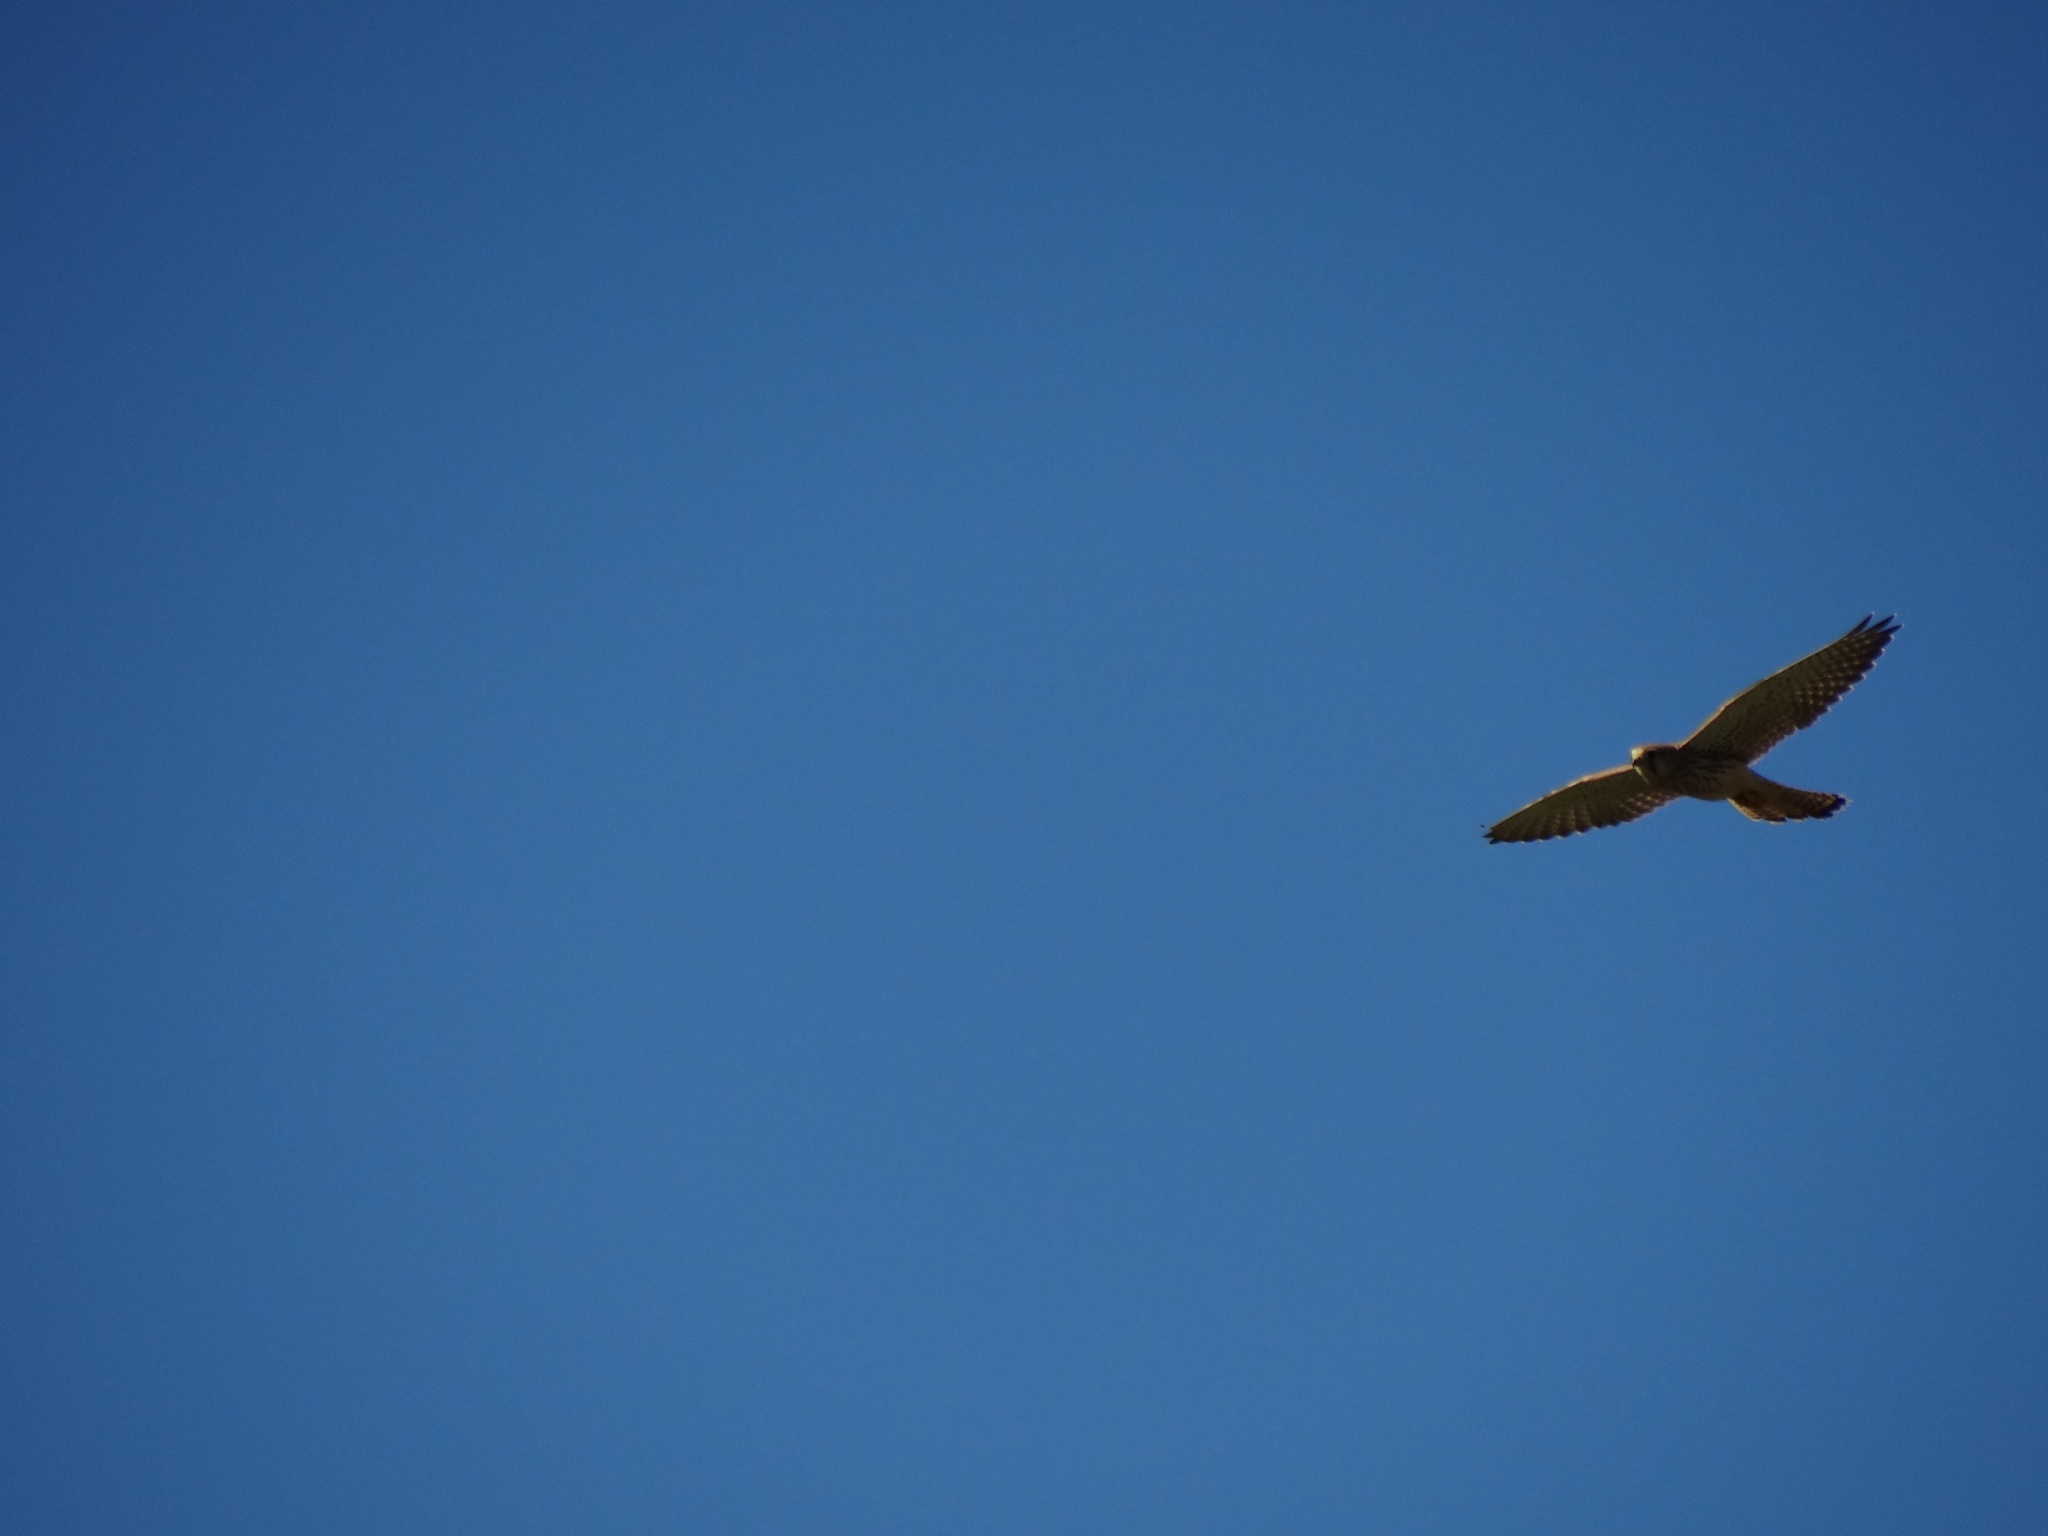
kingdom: Animalia
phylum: Chordata
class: Aves
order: Falconiformes
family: Falconidae
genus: Falco
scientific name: Falco tinnunculus
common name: Common kestrel
